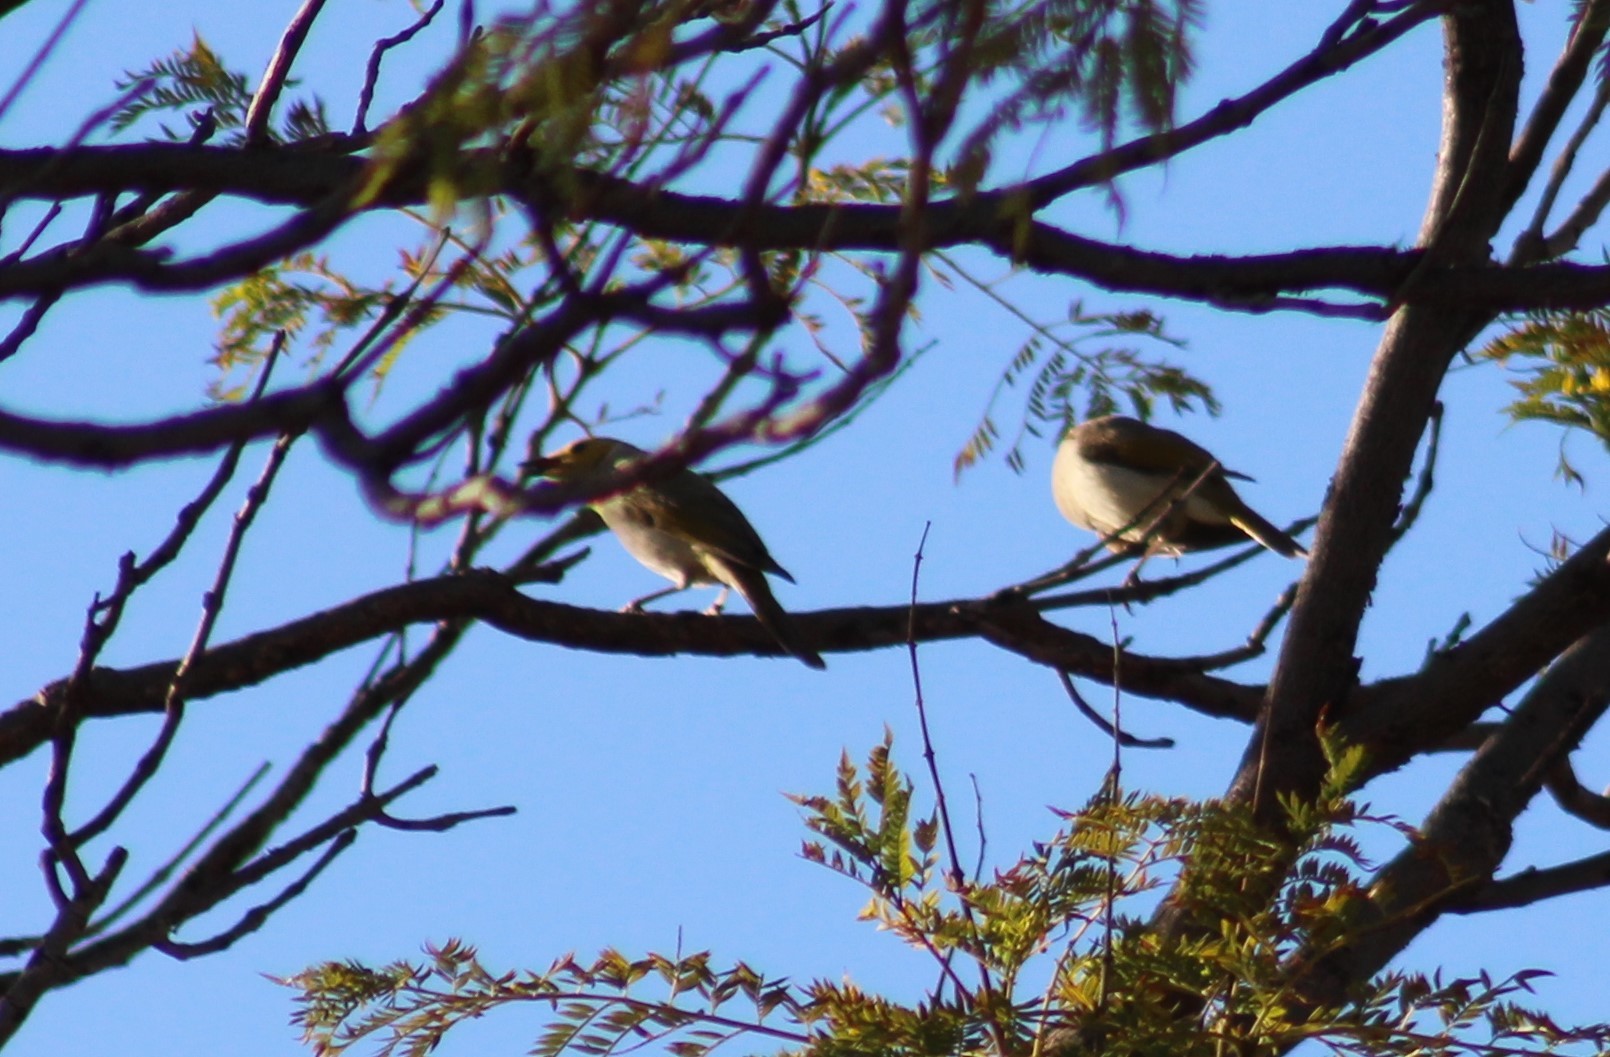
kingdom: Animalia
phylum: Chordata
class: Aves
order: Passeriformes
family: Meliphagidae
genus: Ptilotula
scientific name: Ptilotula penicillata
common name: White-plumed honeyeater
